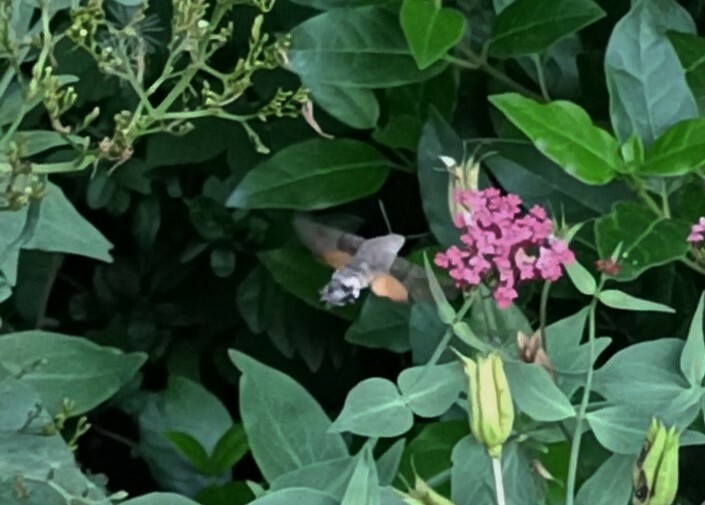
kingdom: Animalia
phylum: Arthropoda
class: Insecta
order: Lepidoptera
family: Sphingidae
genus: Macroglossum
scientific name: Macroglossum stellatarum
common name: Humming-bird hawk-moth
